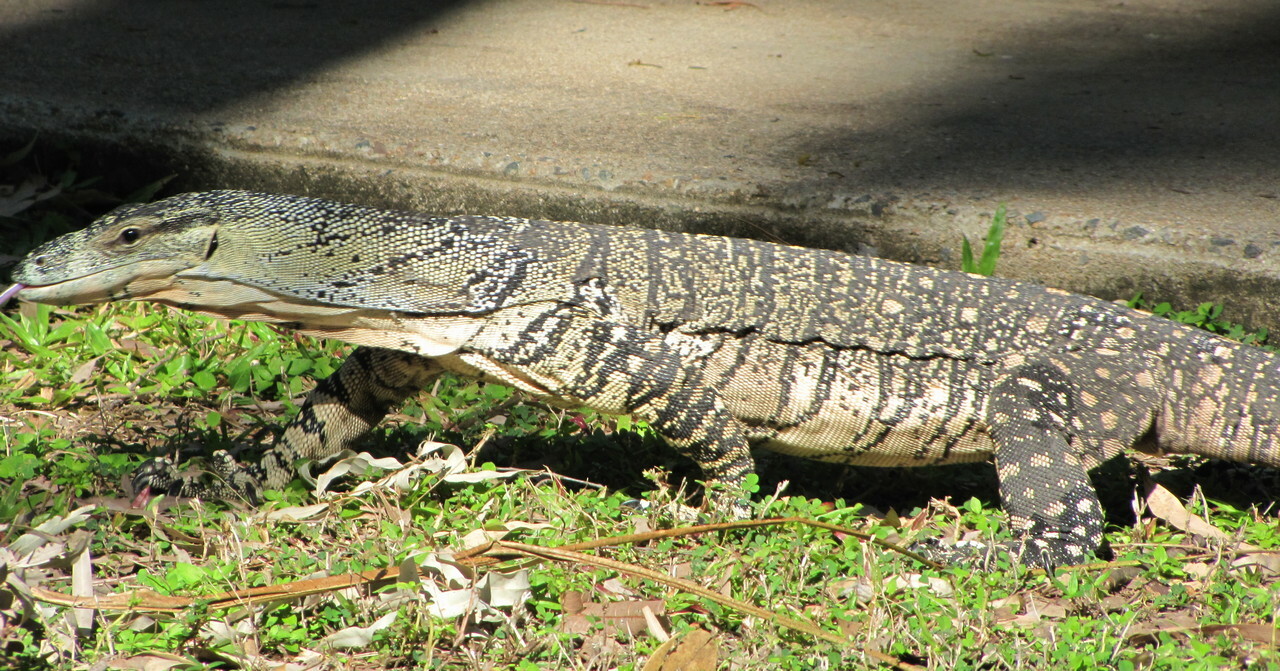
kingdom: Animalia
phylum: Chordata
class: Squamata
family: Varanidae
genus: Varanus
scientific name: Varanus varius
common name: Lace monitor
